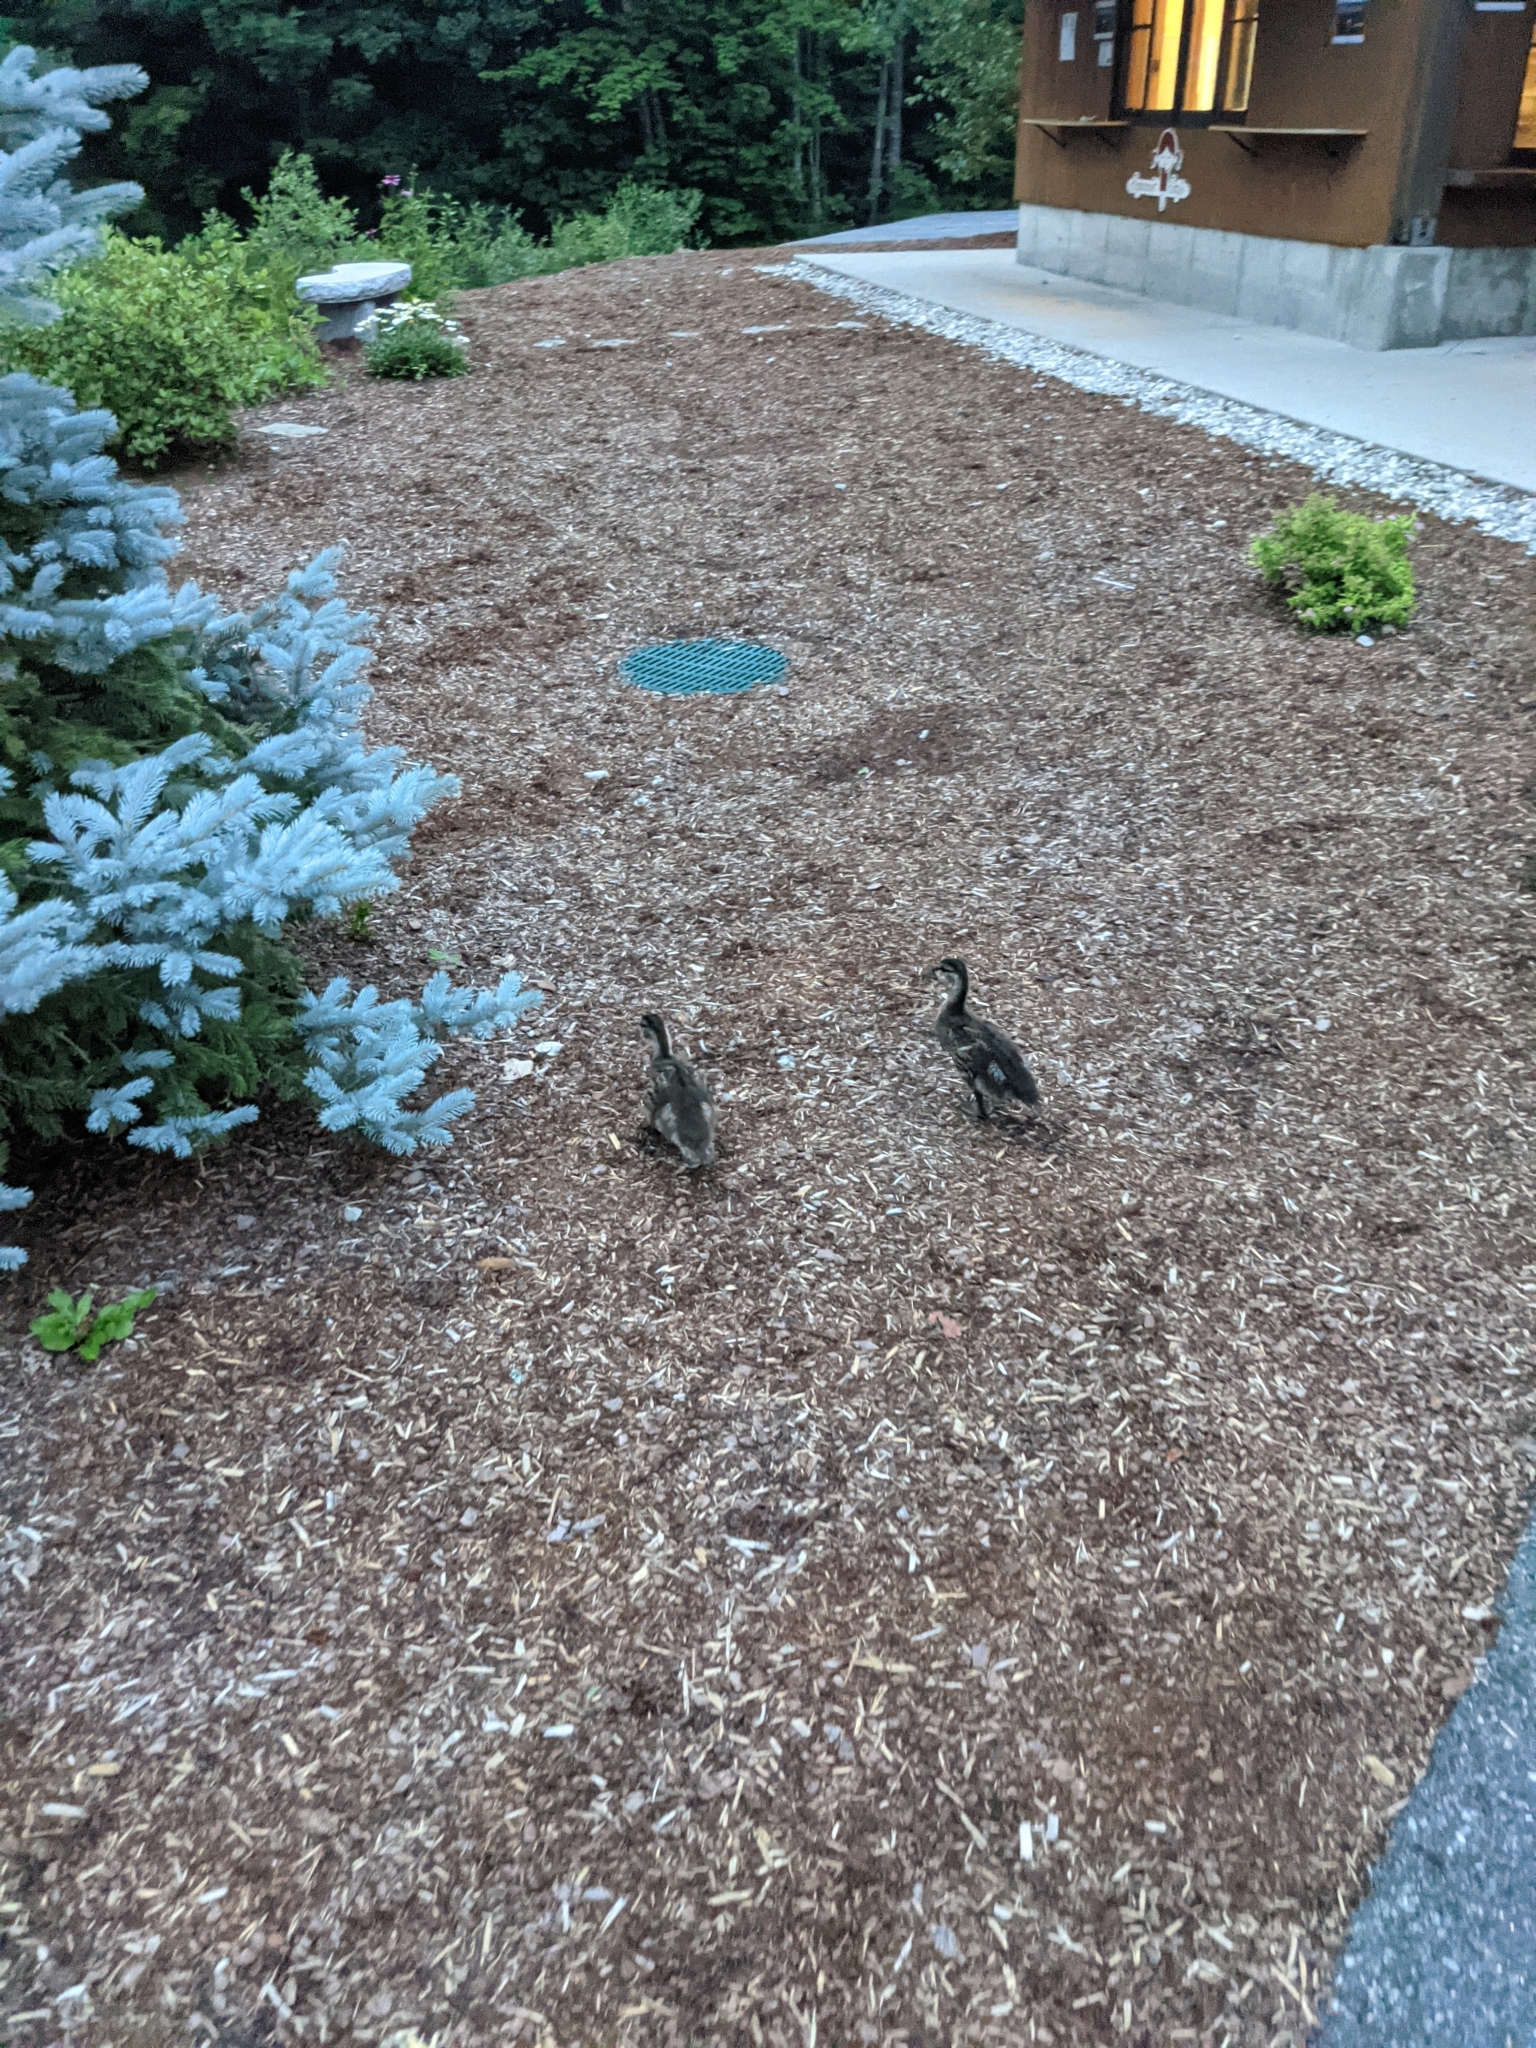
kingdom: Animalia
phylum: Chordata
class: Aves
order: Anseriformes
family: Anatidae
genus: Anas
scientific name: Anas platyrhynchos
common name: Mallard
